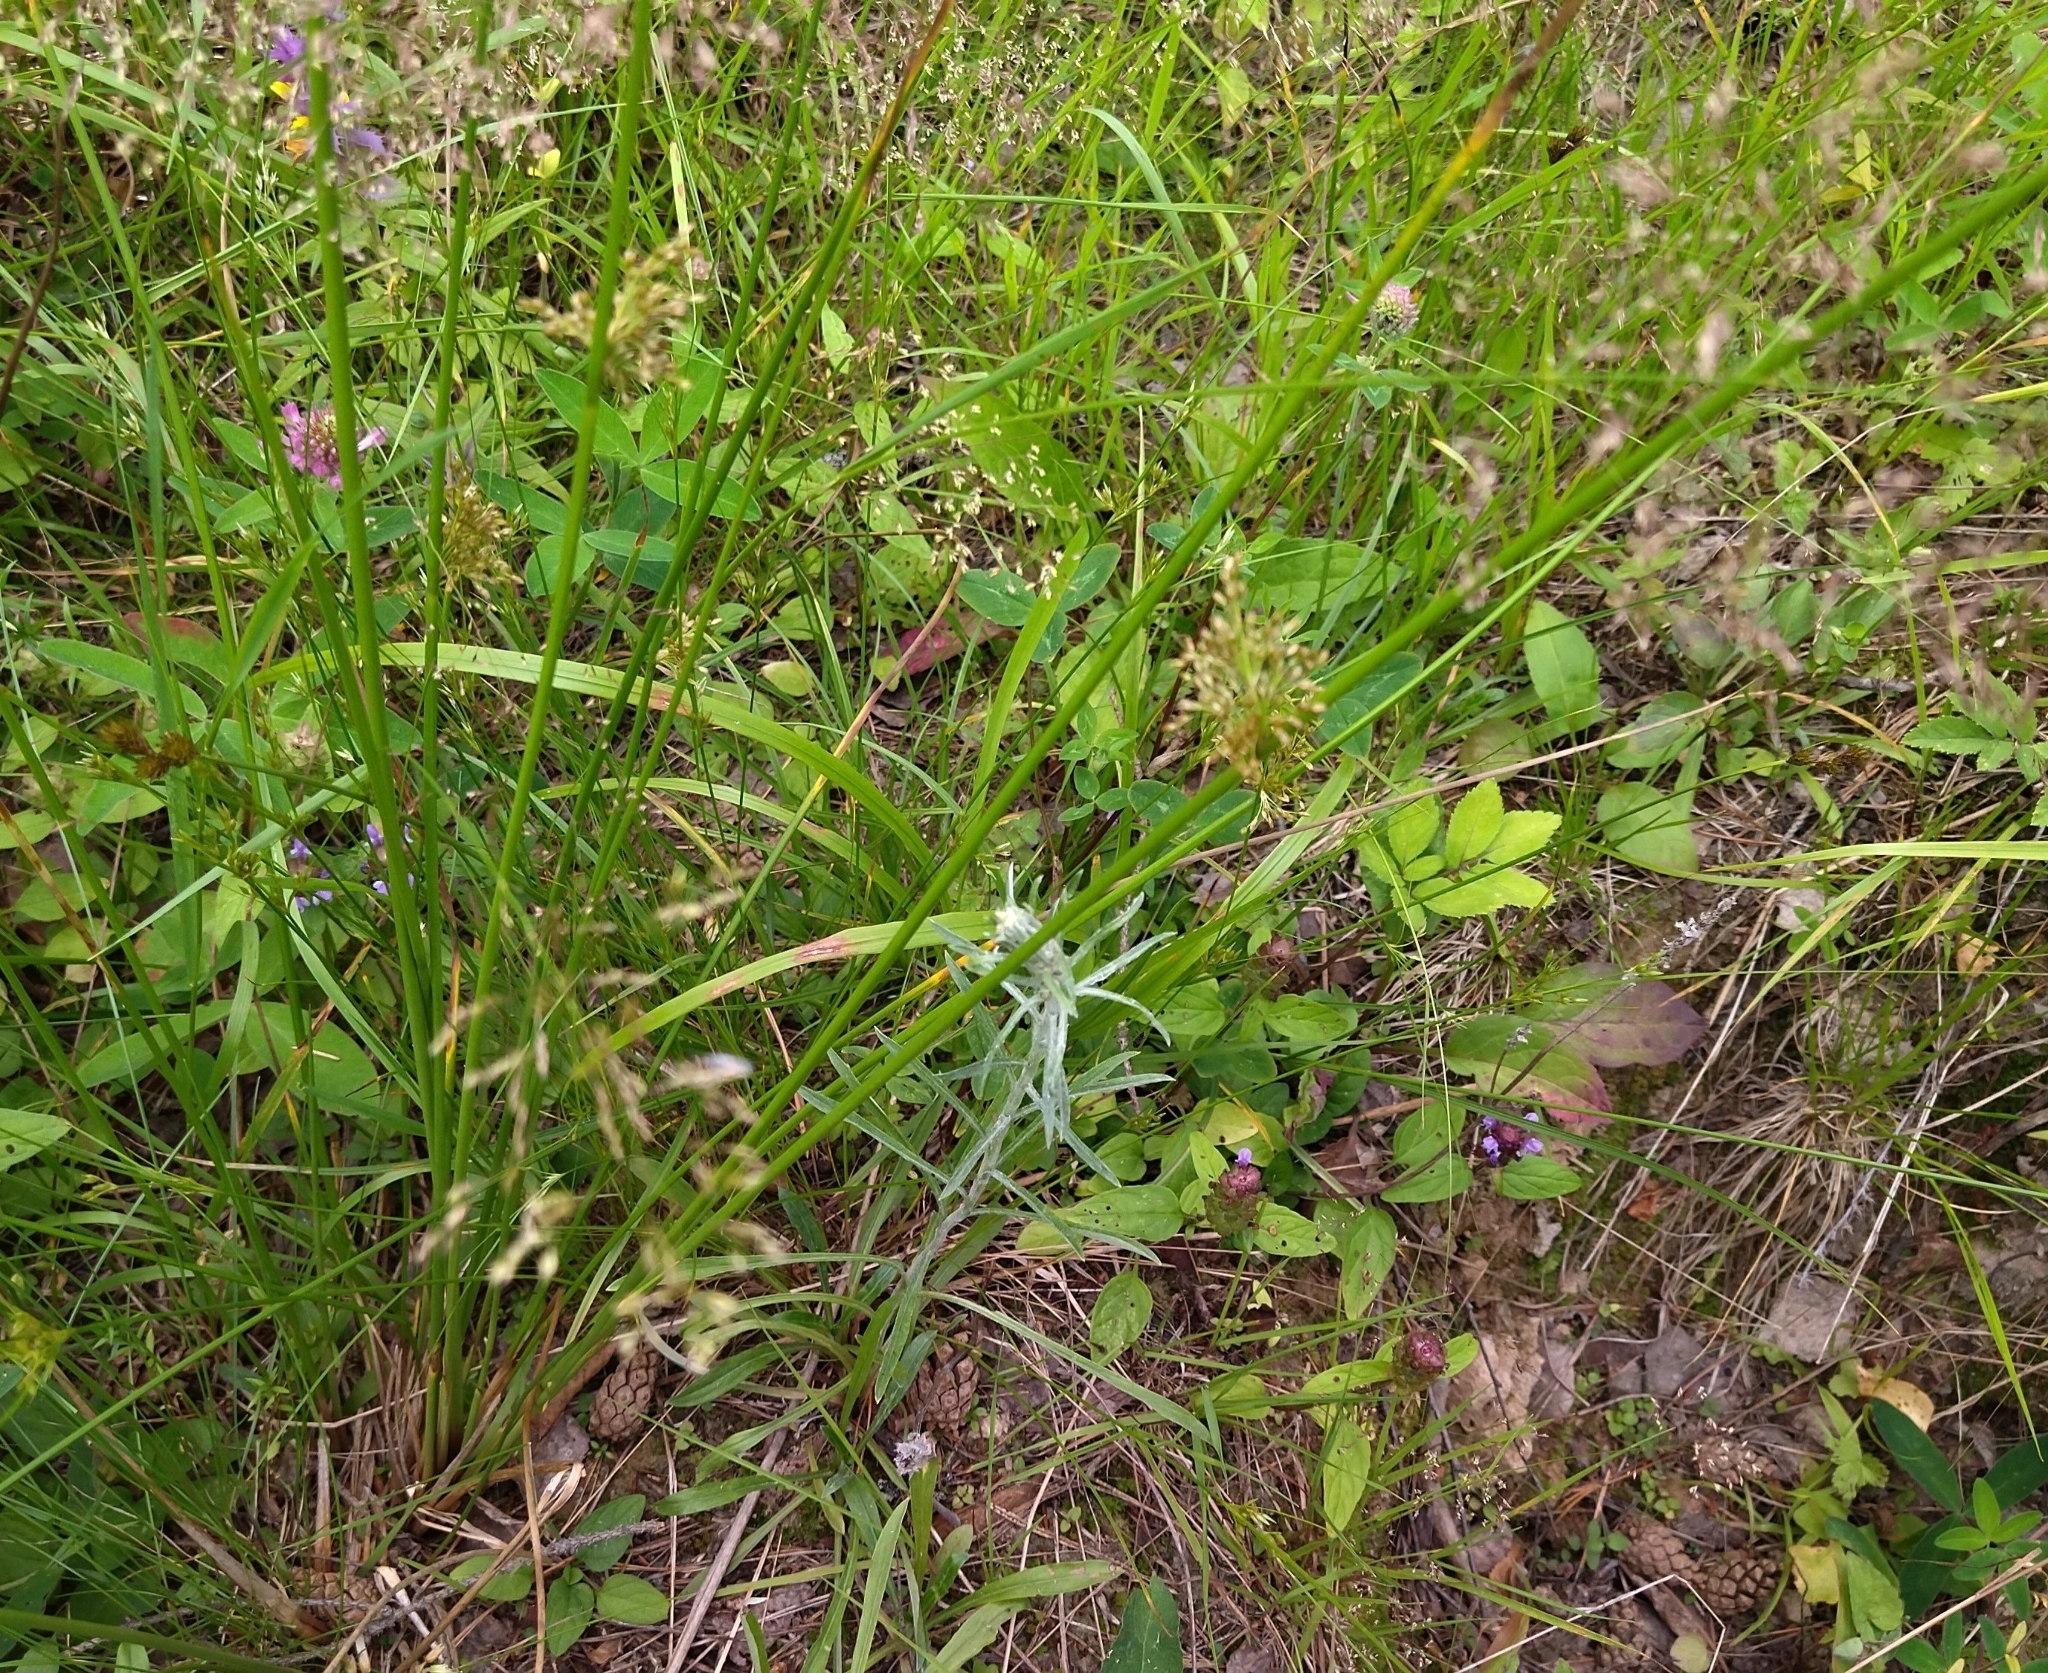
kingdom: Plantae
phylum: Tracheophyta
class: Liliopsida
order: Poales
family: Juncaceae
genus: Juncus
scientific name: Juncus effusus
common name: Soft rush
